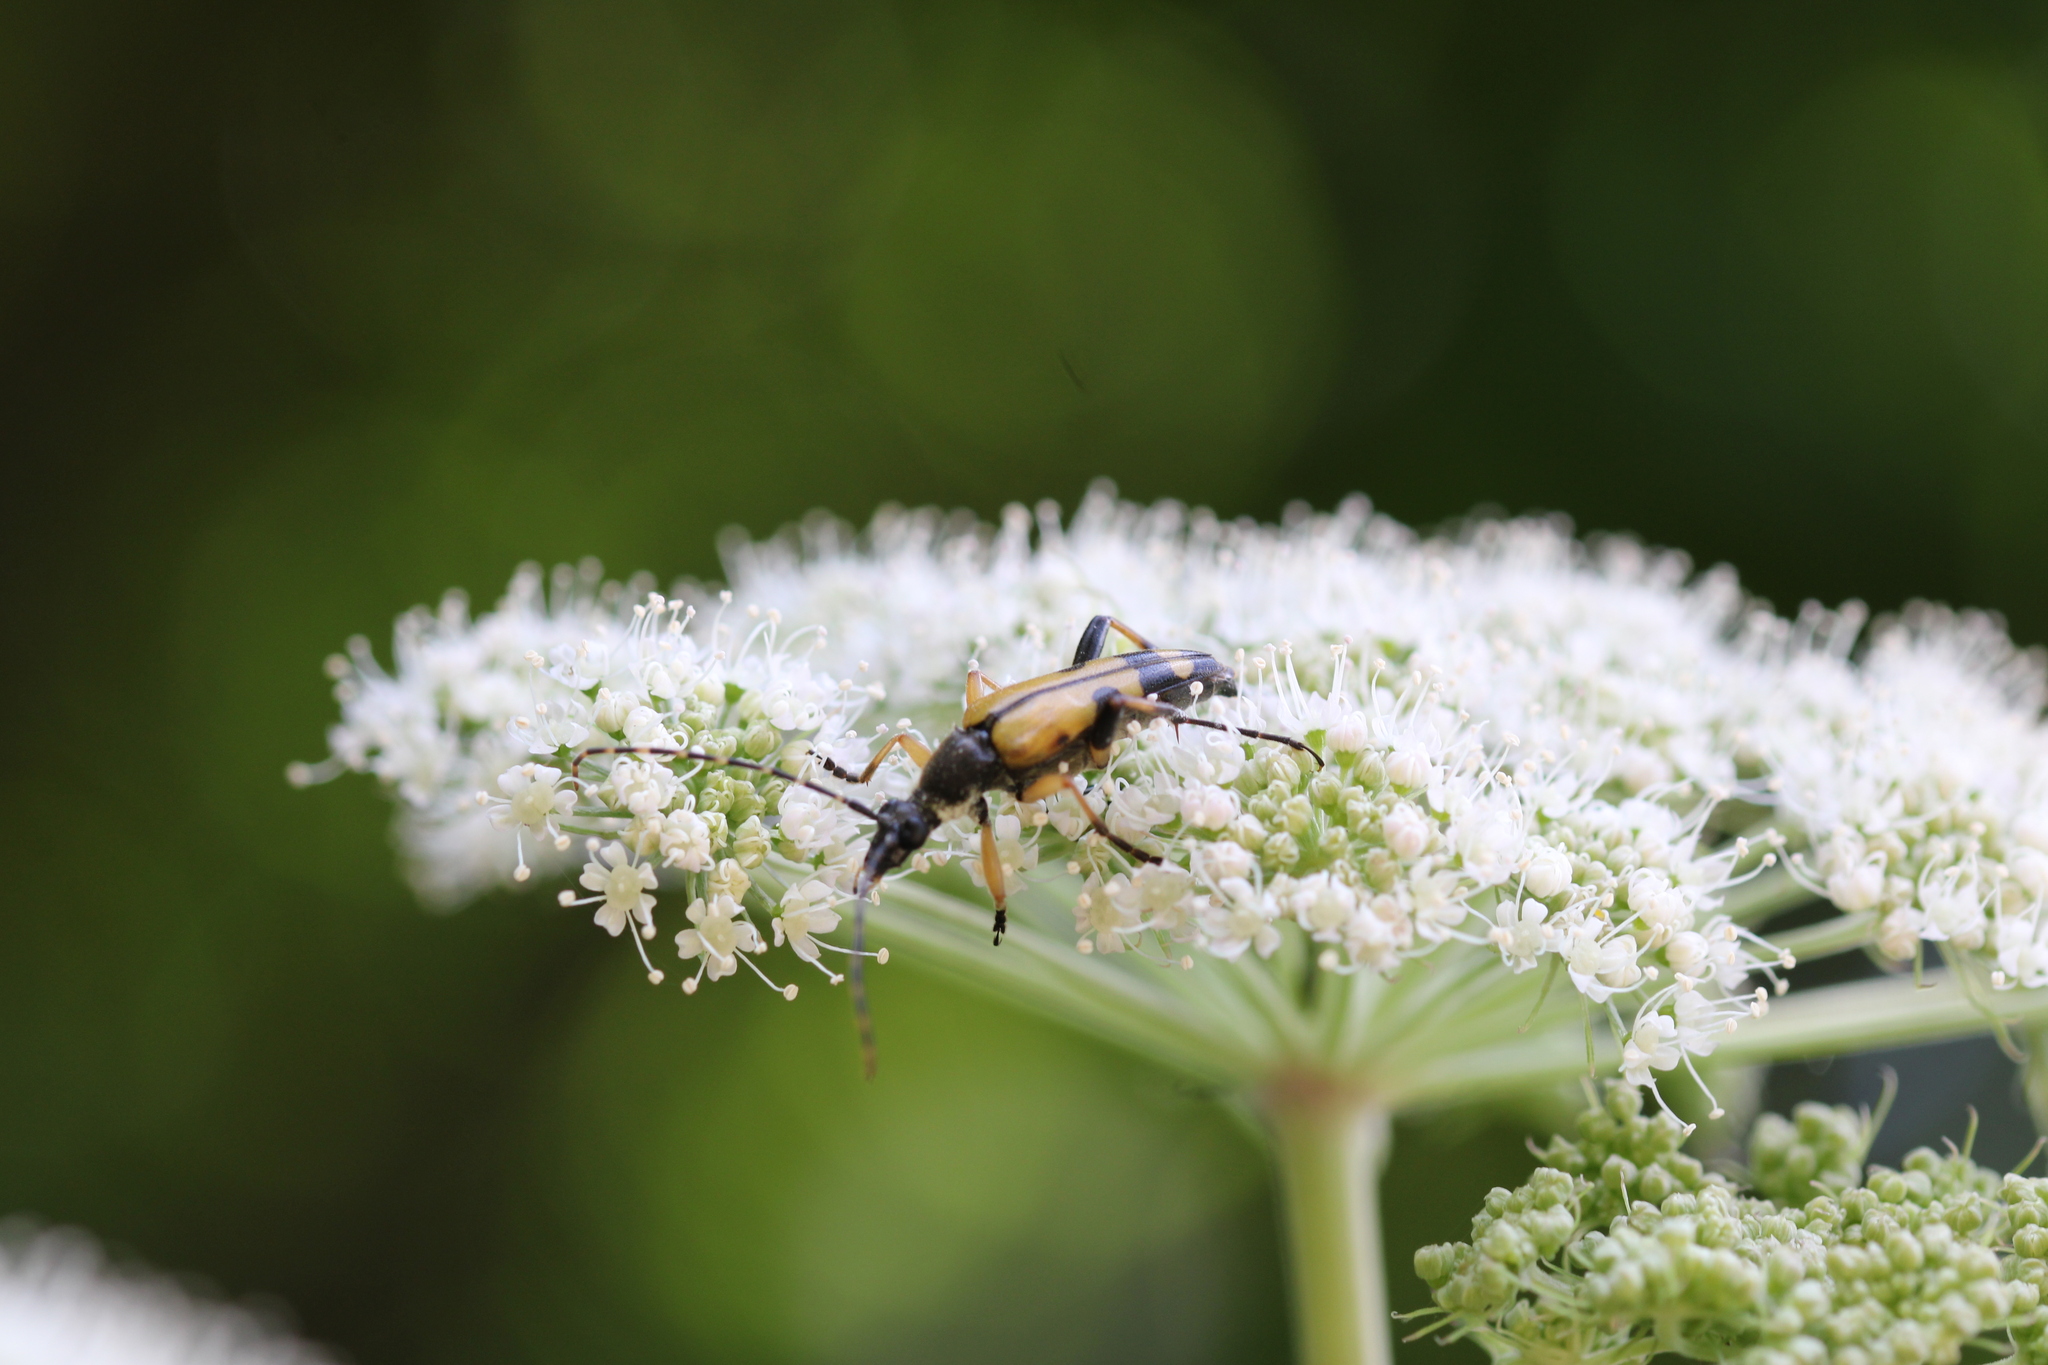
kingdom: Animalia
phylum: Arthropoda
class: Insecta
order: Coleoptera
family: Cerambycidae
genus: Rutpela
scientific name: Rutpela maculata
